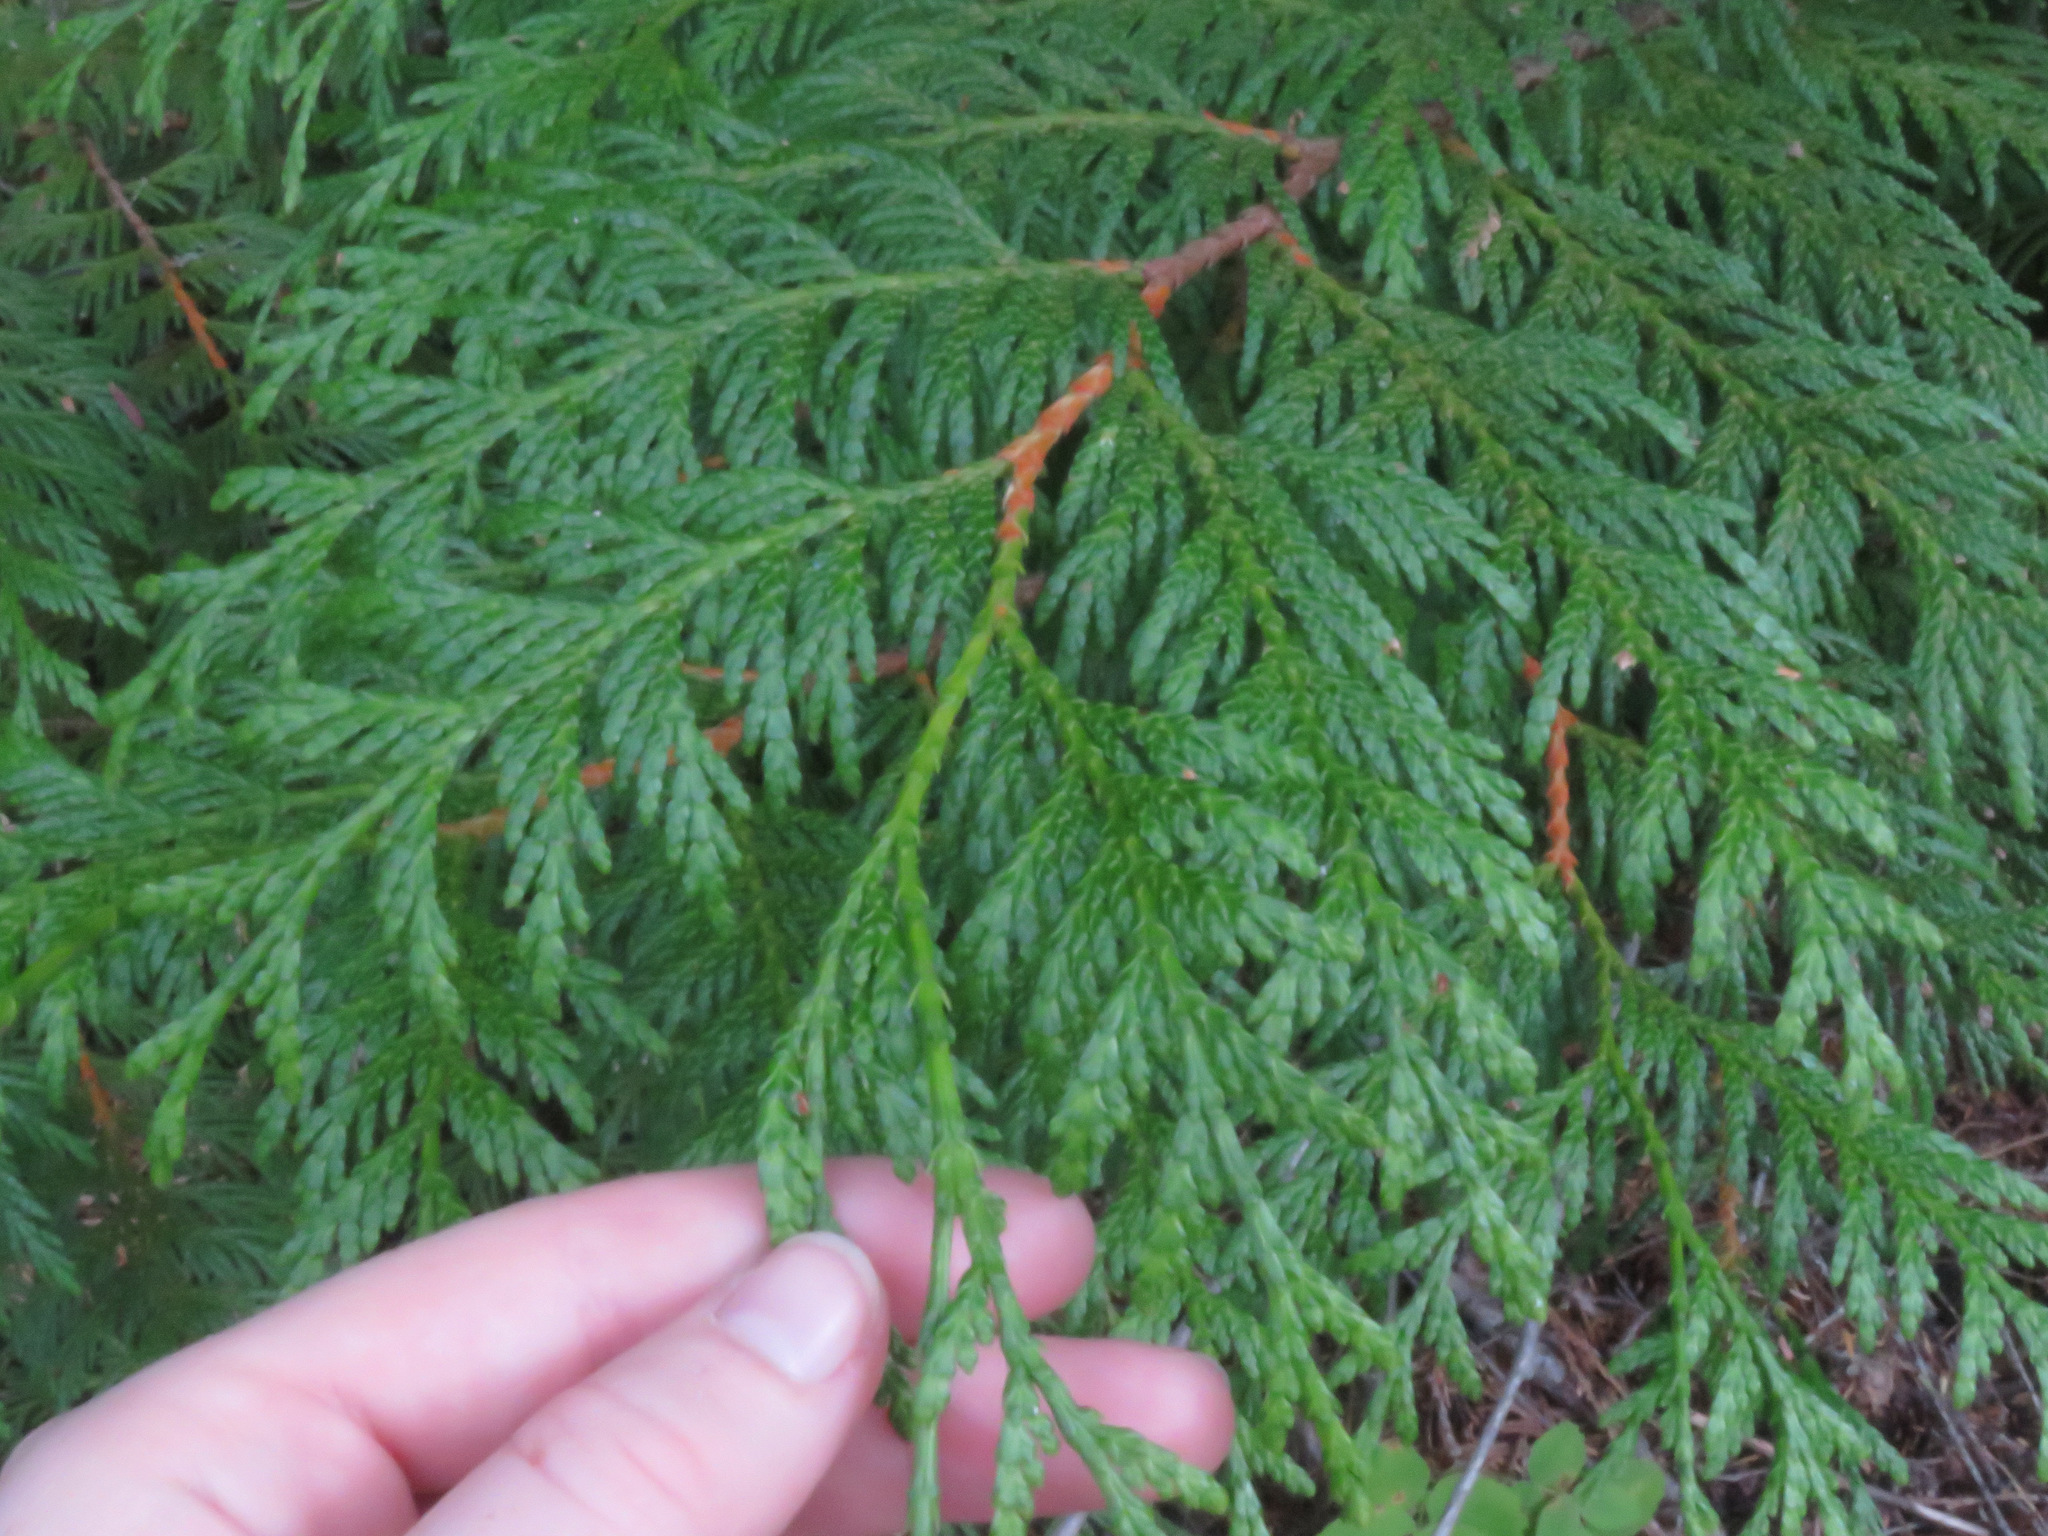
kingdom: Plantae
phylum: Tracheophyta
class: Pinopsida
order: Pinales
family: Cupressaceae
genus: Thuja
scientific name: Thuja plicata
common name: Western red-cedar
